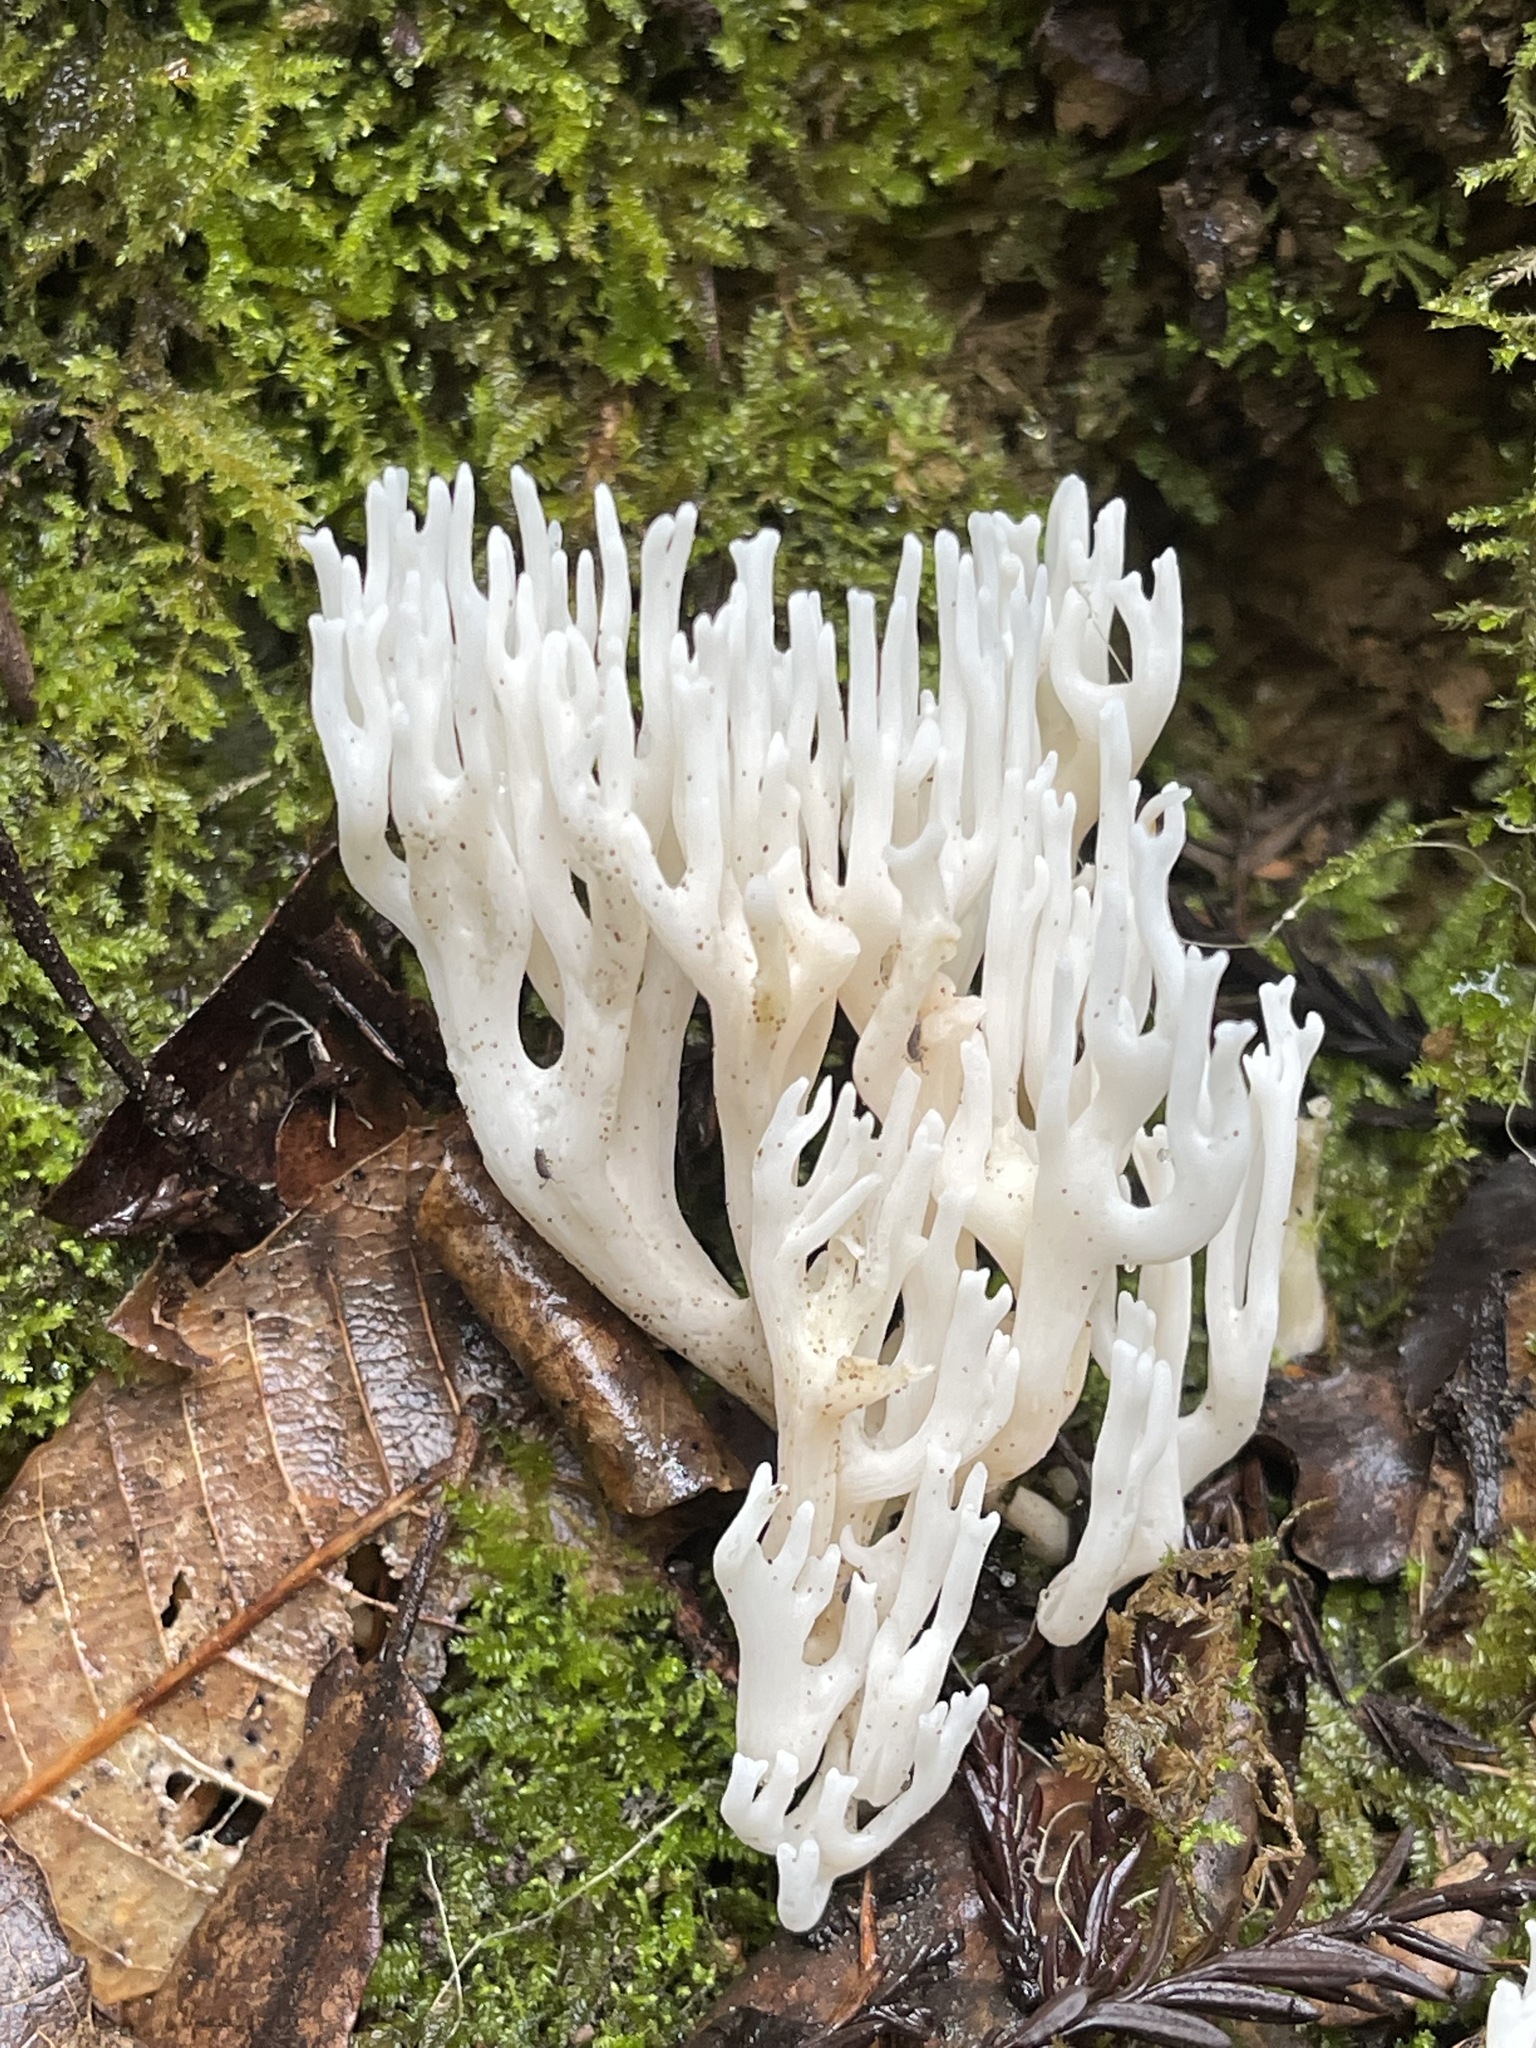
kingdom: Fungi
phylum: Basidiomycota
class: Agaricomycetes
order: Agaricales
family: Clavariaceae
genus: Ramariopsis
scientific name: Ramariopsis kunzei
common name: Ivory coral
